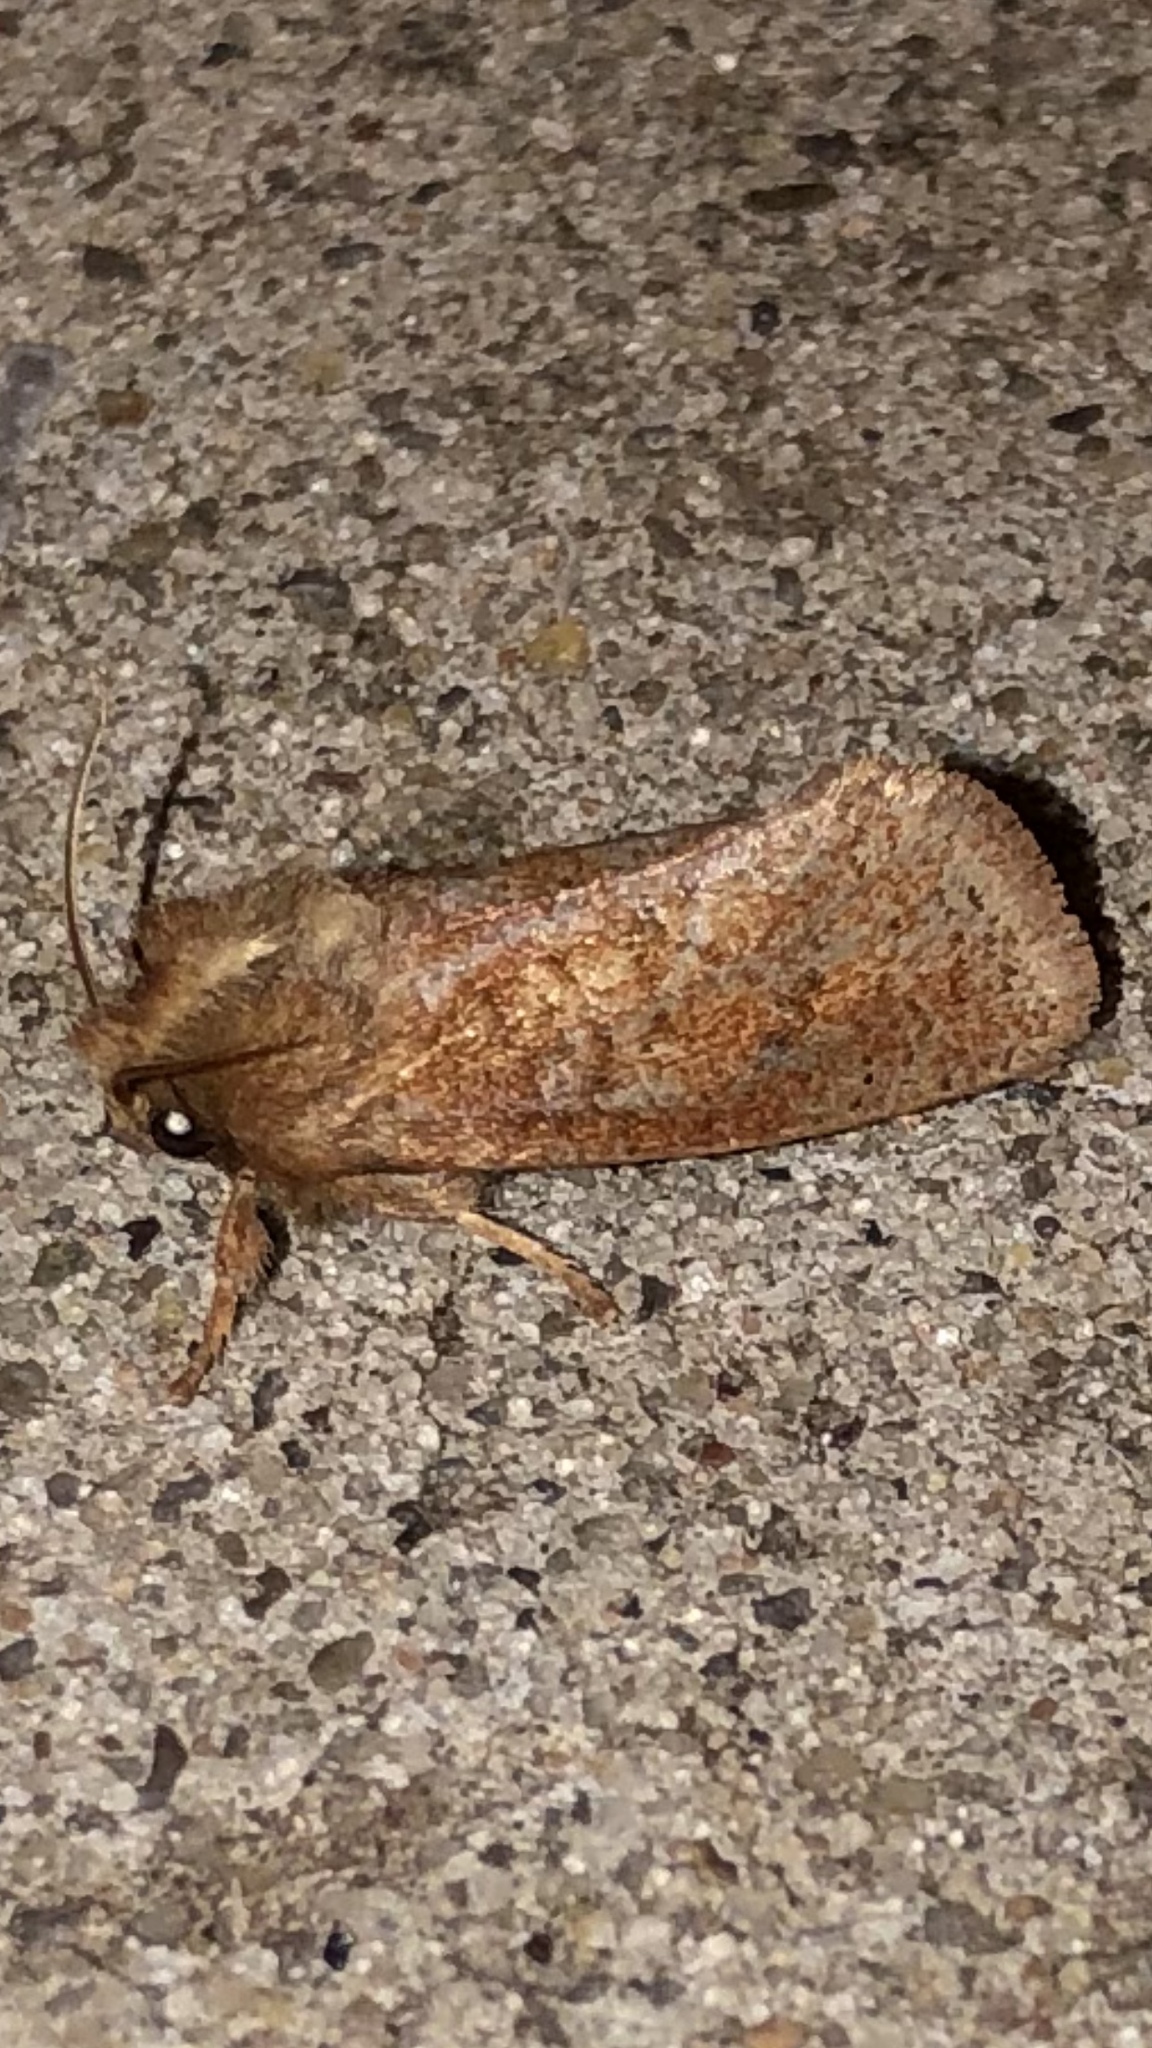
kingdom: Animalia
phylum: Arthropoda
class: Insecta
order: Lepidoptera
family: Tineidae
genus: Acrolophus
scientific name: Acrolophus plumifrontella
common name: Eastern grass tubeworm moth
